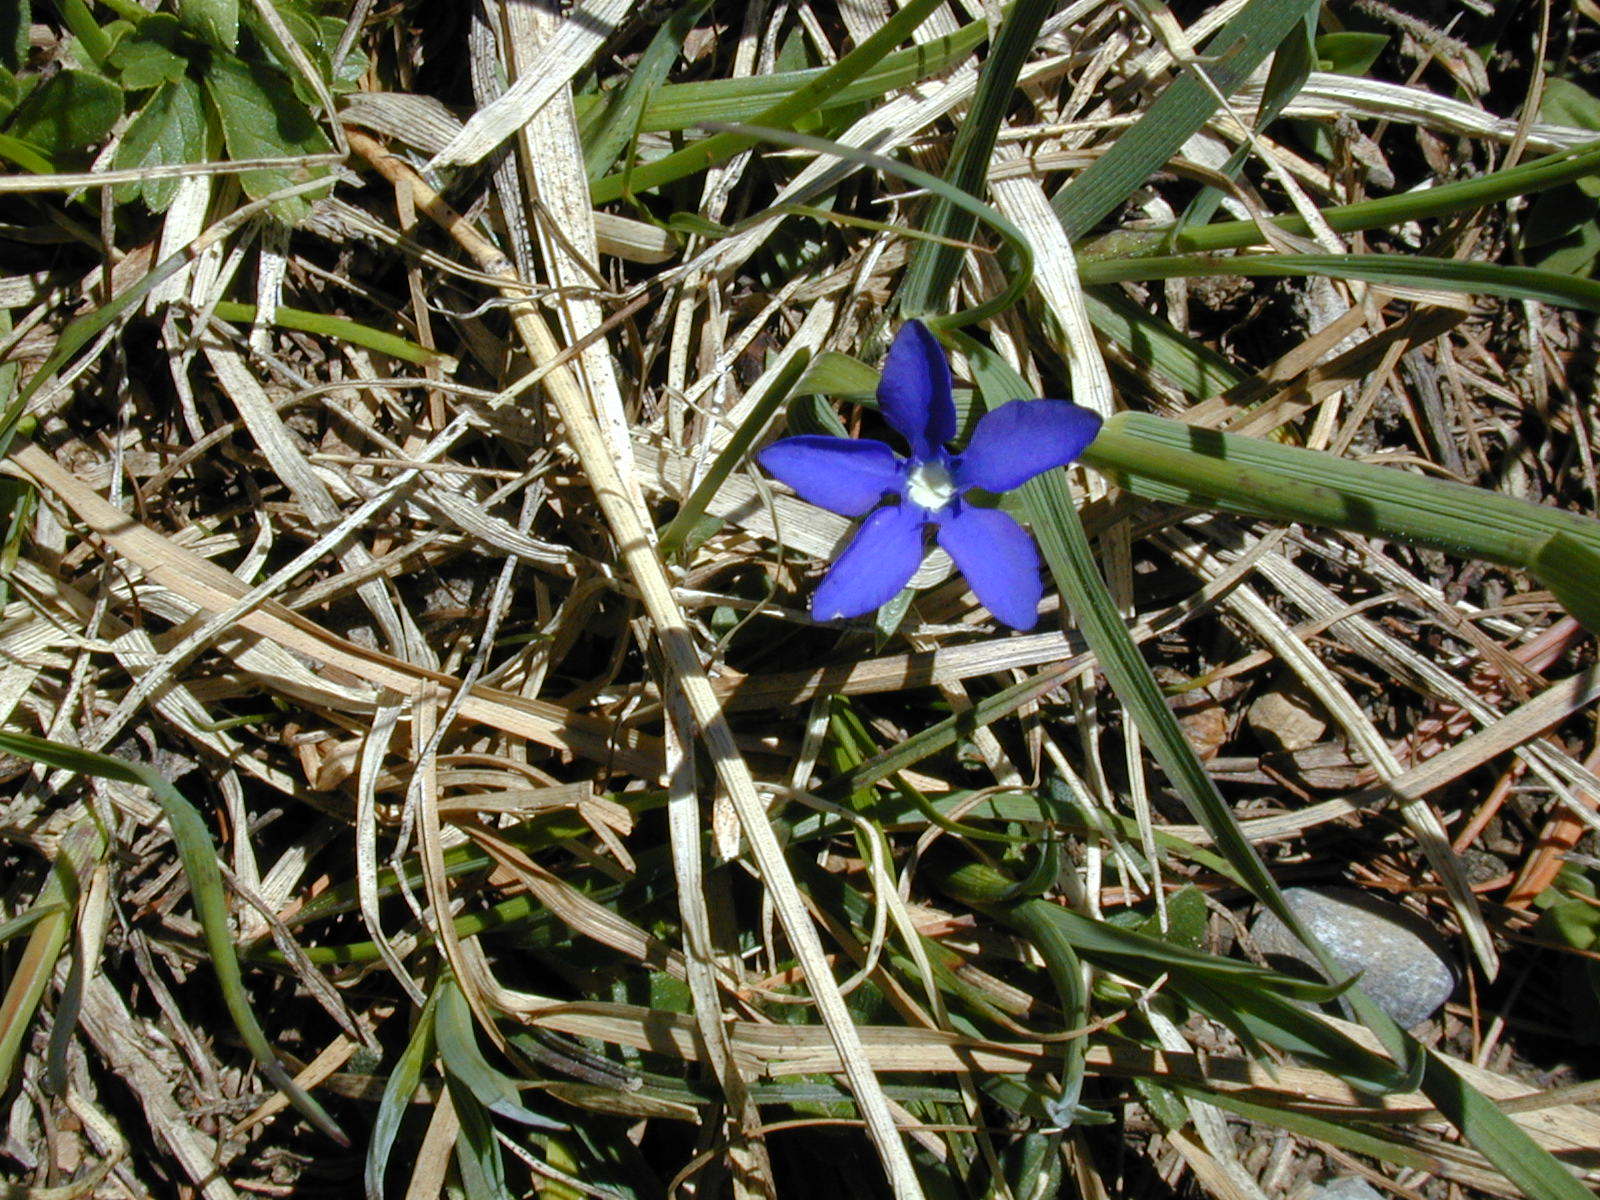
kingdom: Plantae
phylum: Tracheophyta
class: Magnoliopsida
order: Gentianales
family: Gentianaceae
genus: Gentiana
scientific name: Gentiana verna
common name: Spring gentian
